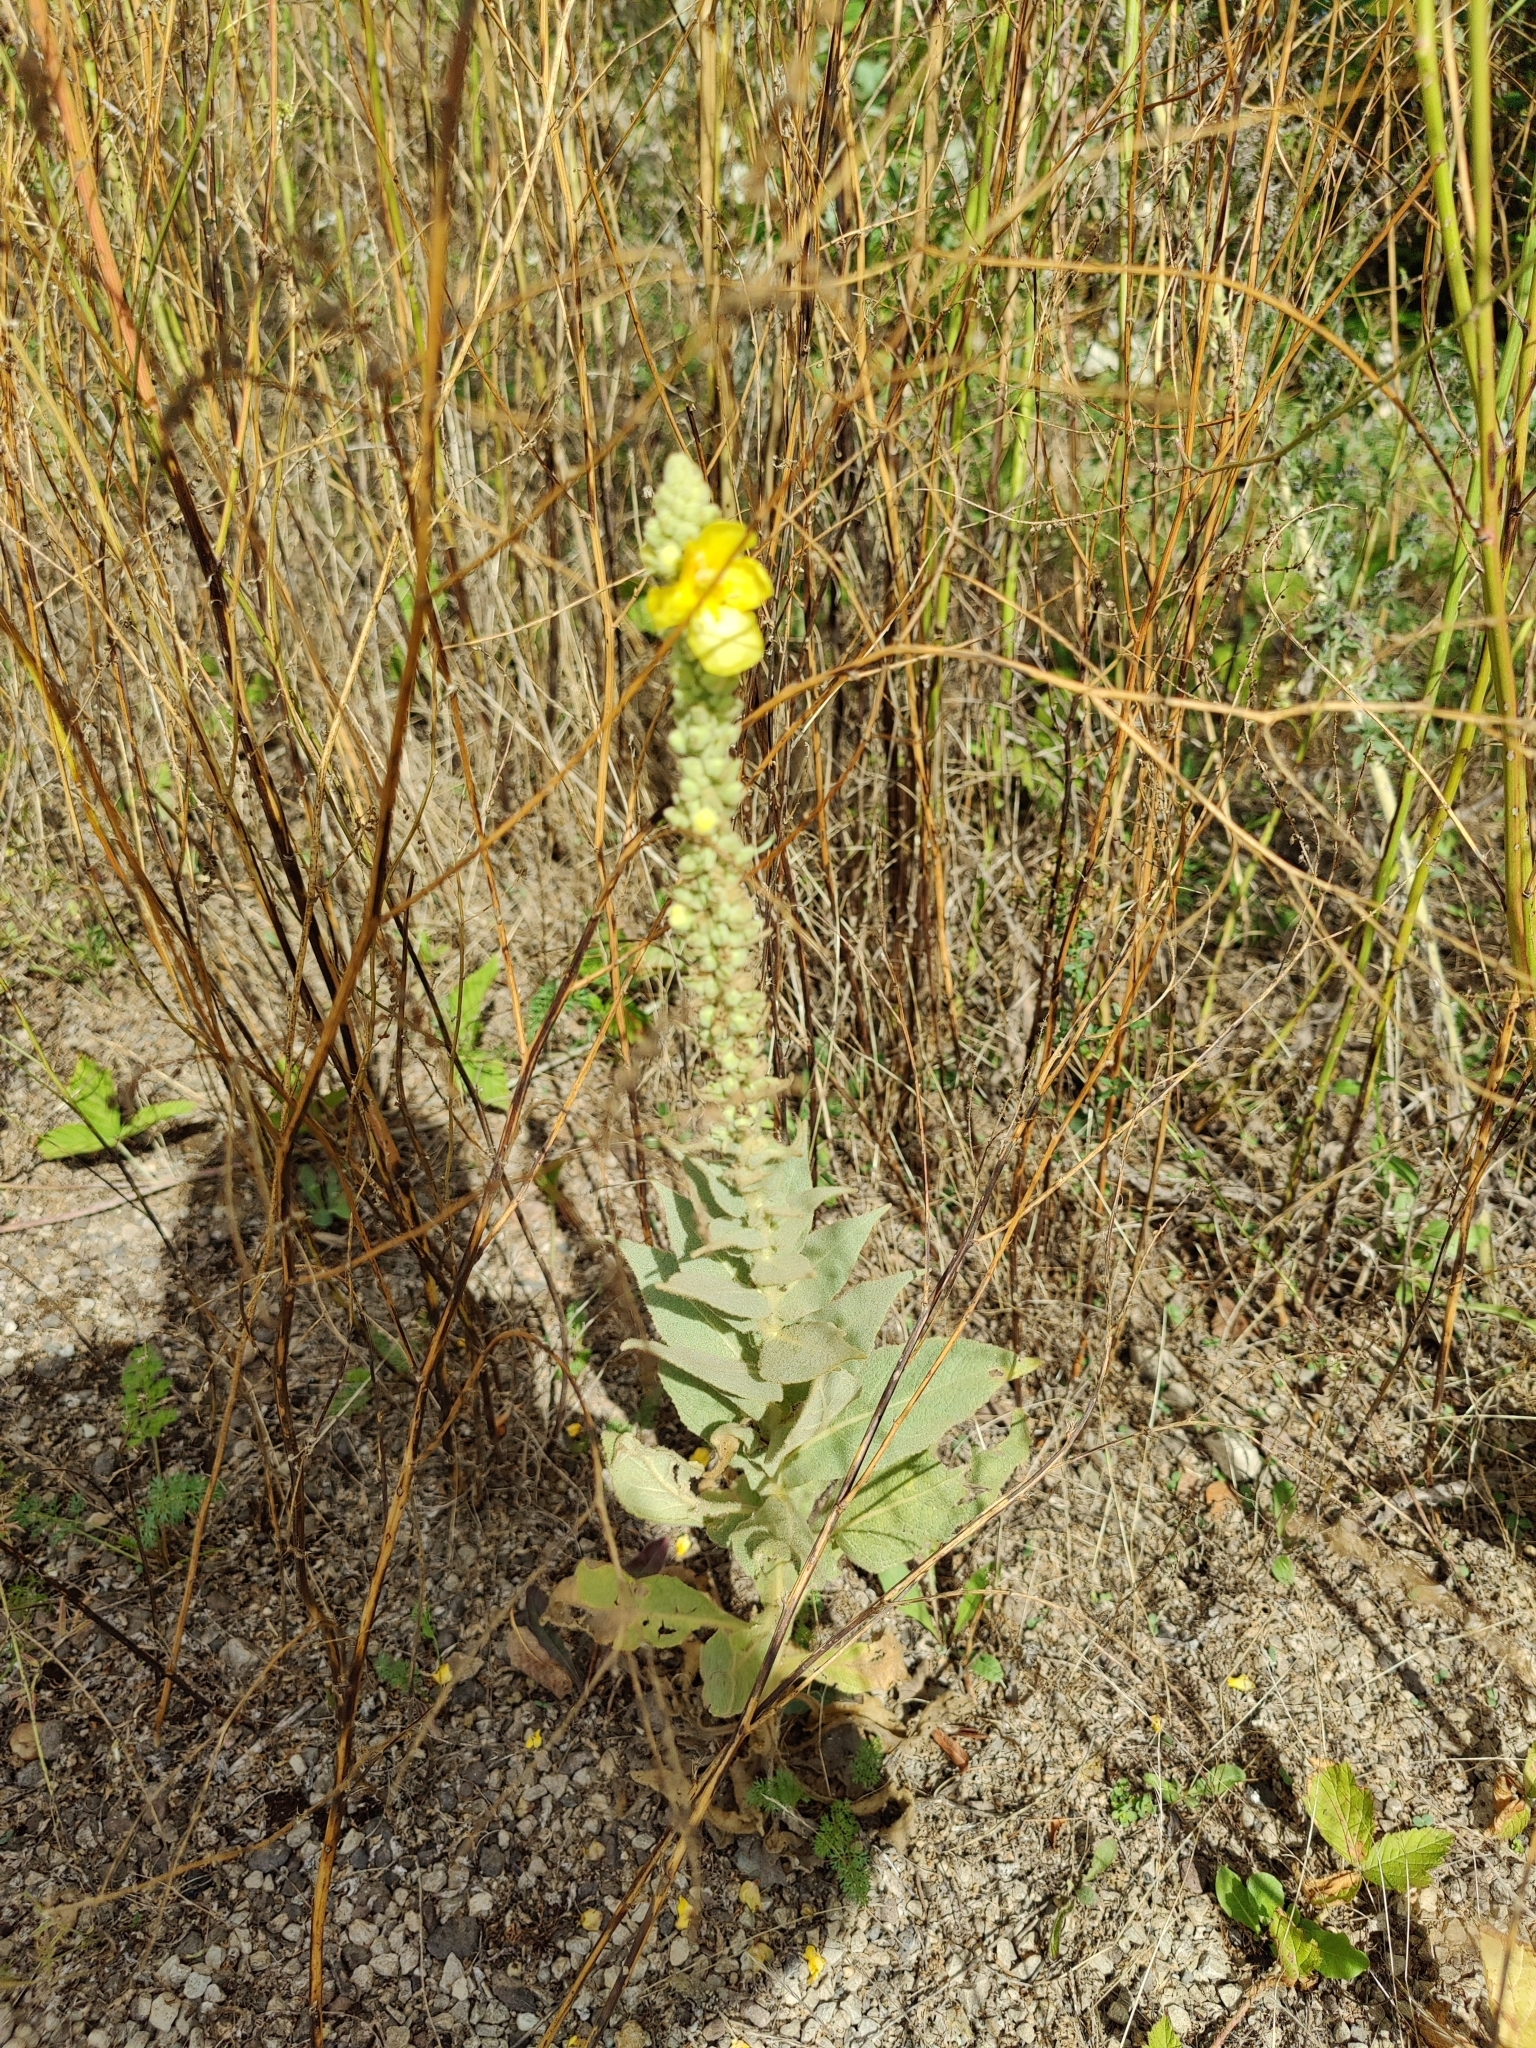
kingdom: Plantae
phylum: Tracheophyta
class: Magnoliopsida
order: Lamiales
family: Scrophulariaceae
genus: Verbascum
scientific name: Verbascum thapsus
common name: Common mullein
